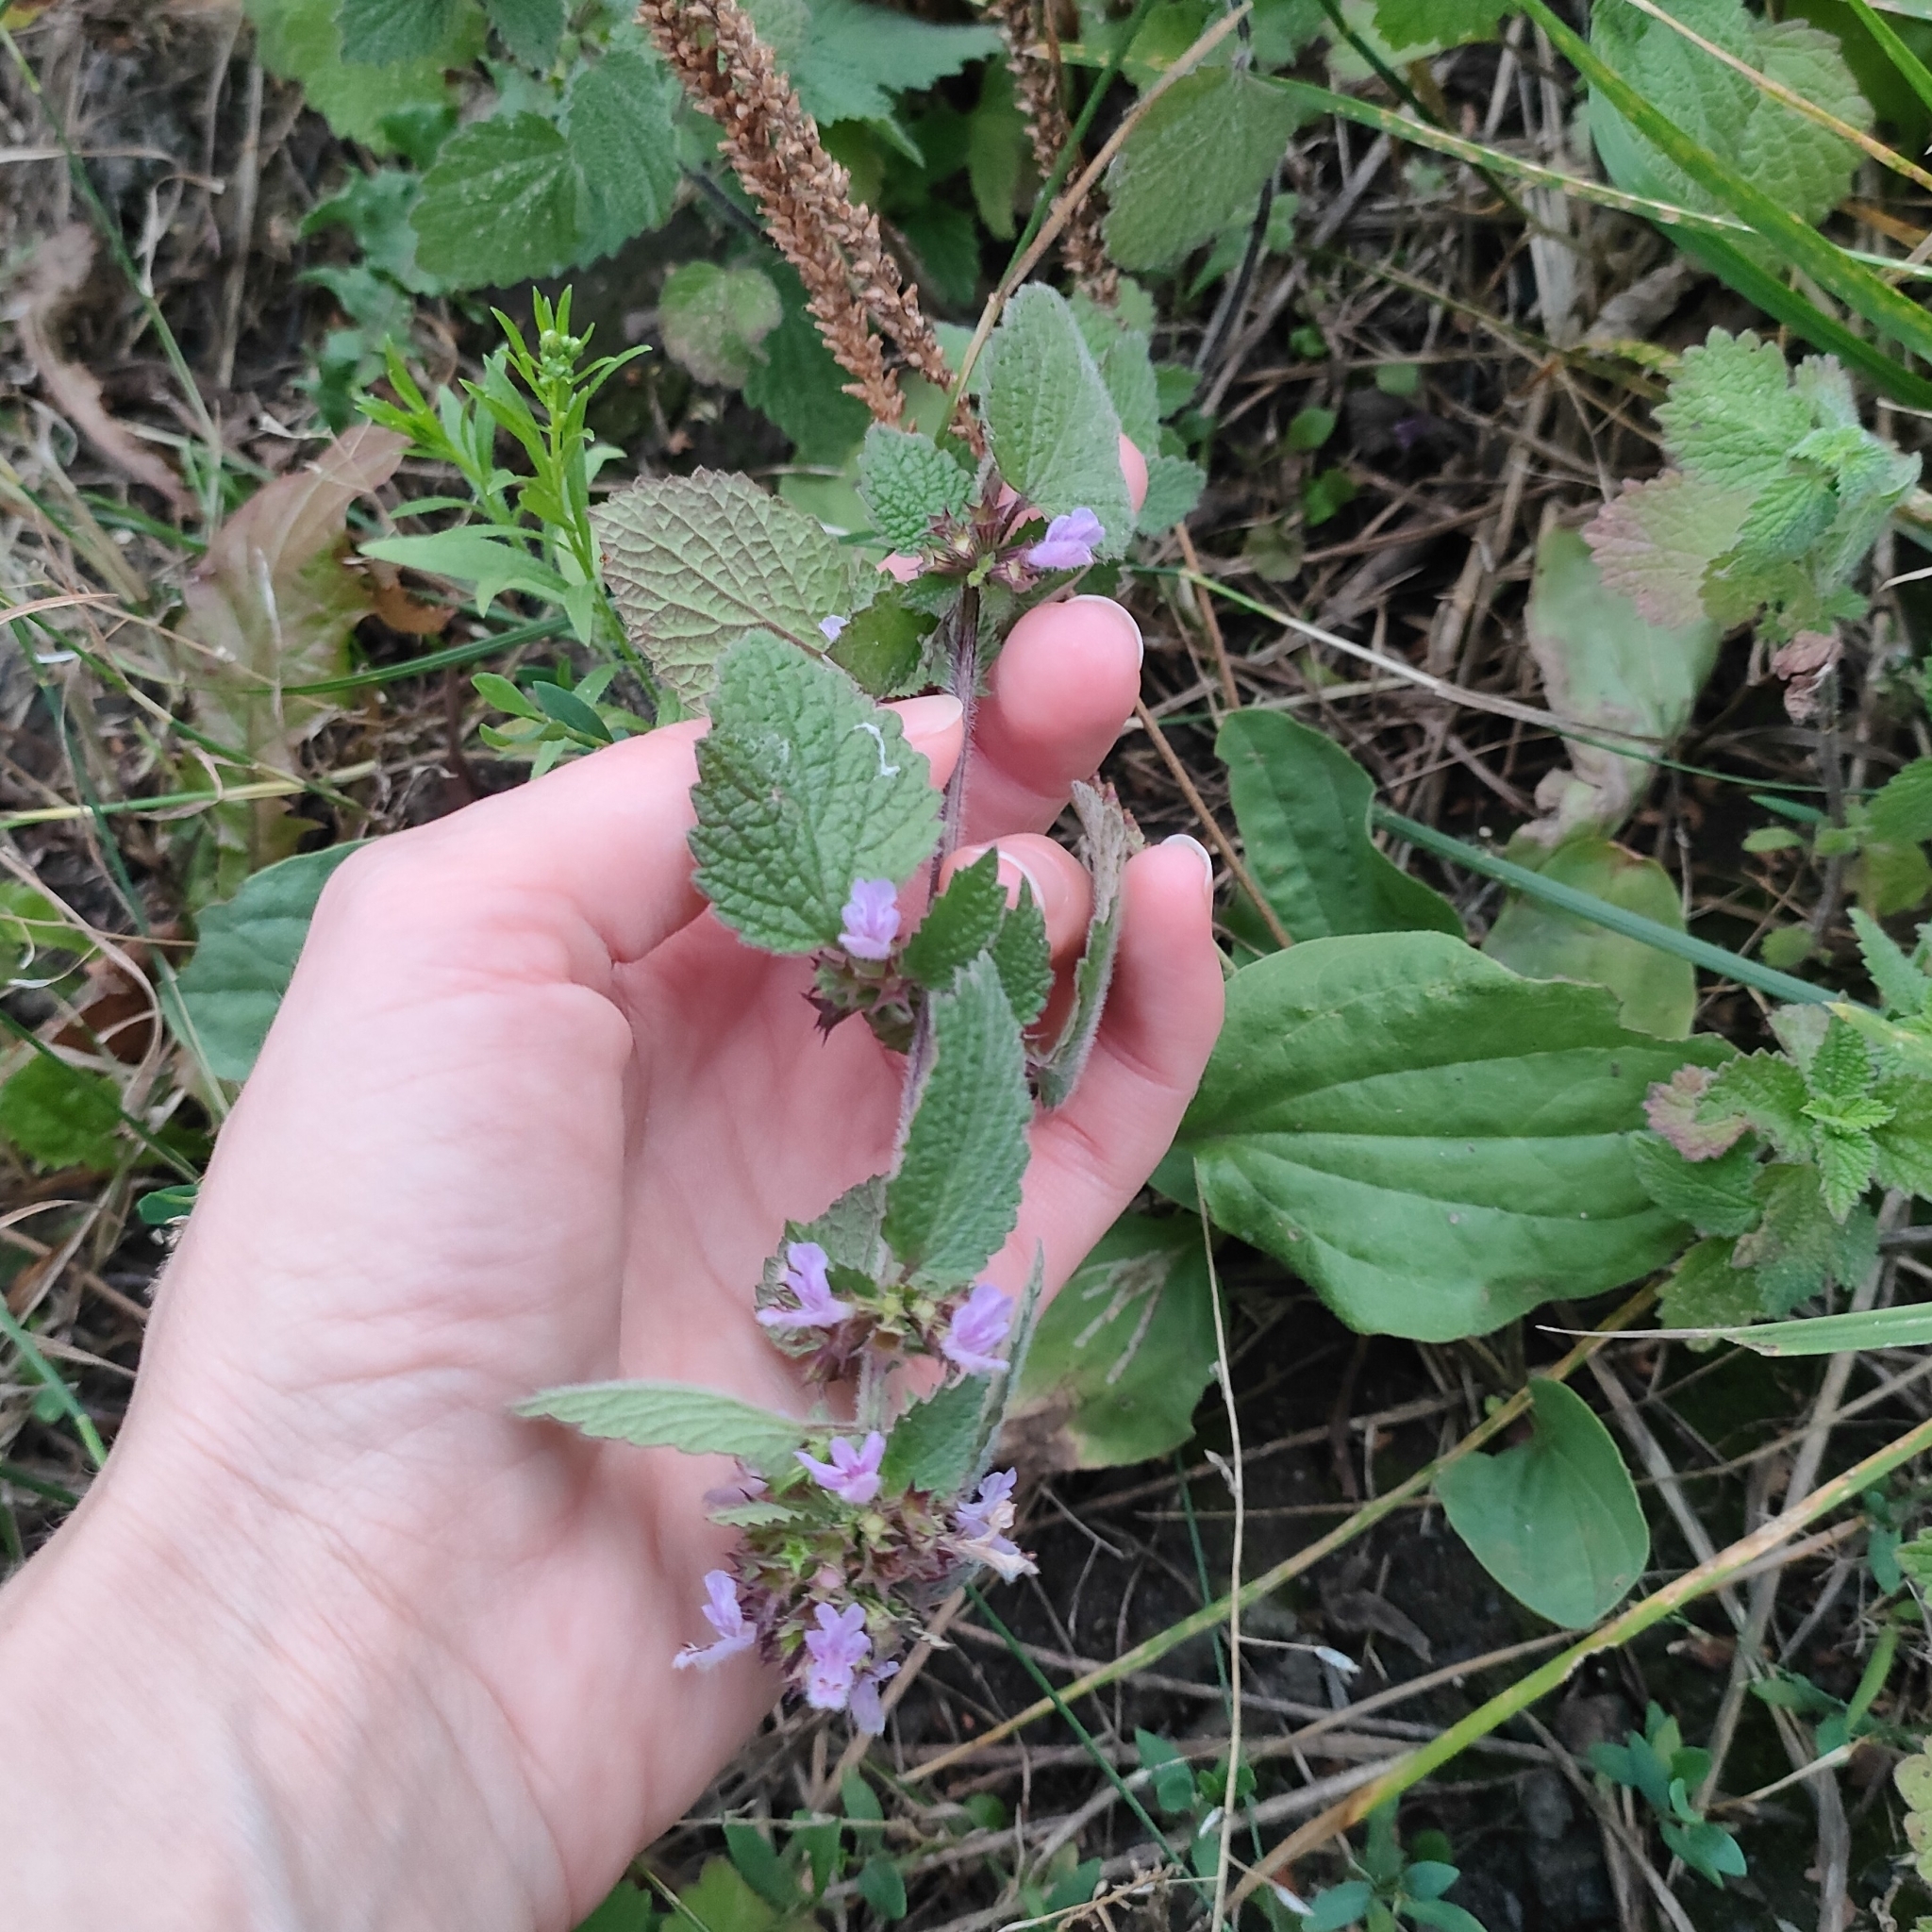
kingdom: Plantae
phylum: Tracheophyta
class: Magnoliopsida
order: Lamiales
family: Lamiaceae
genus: Ballota
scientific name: Ballota nigra
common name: Black horehound
